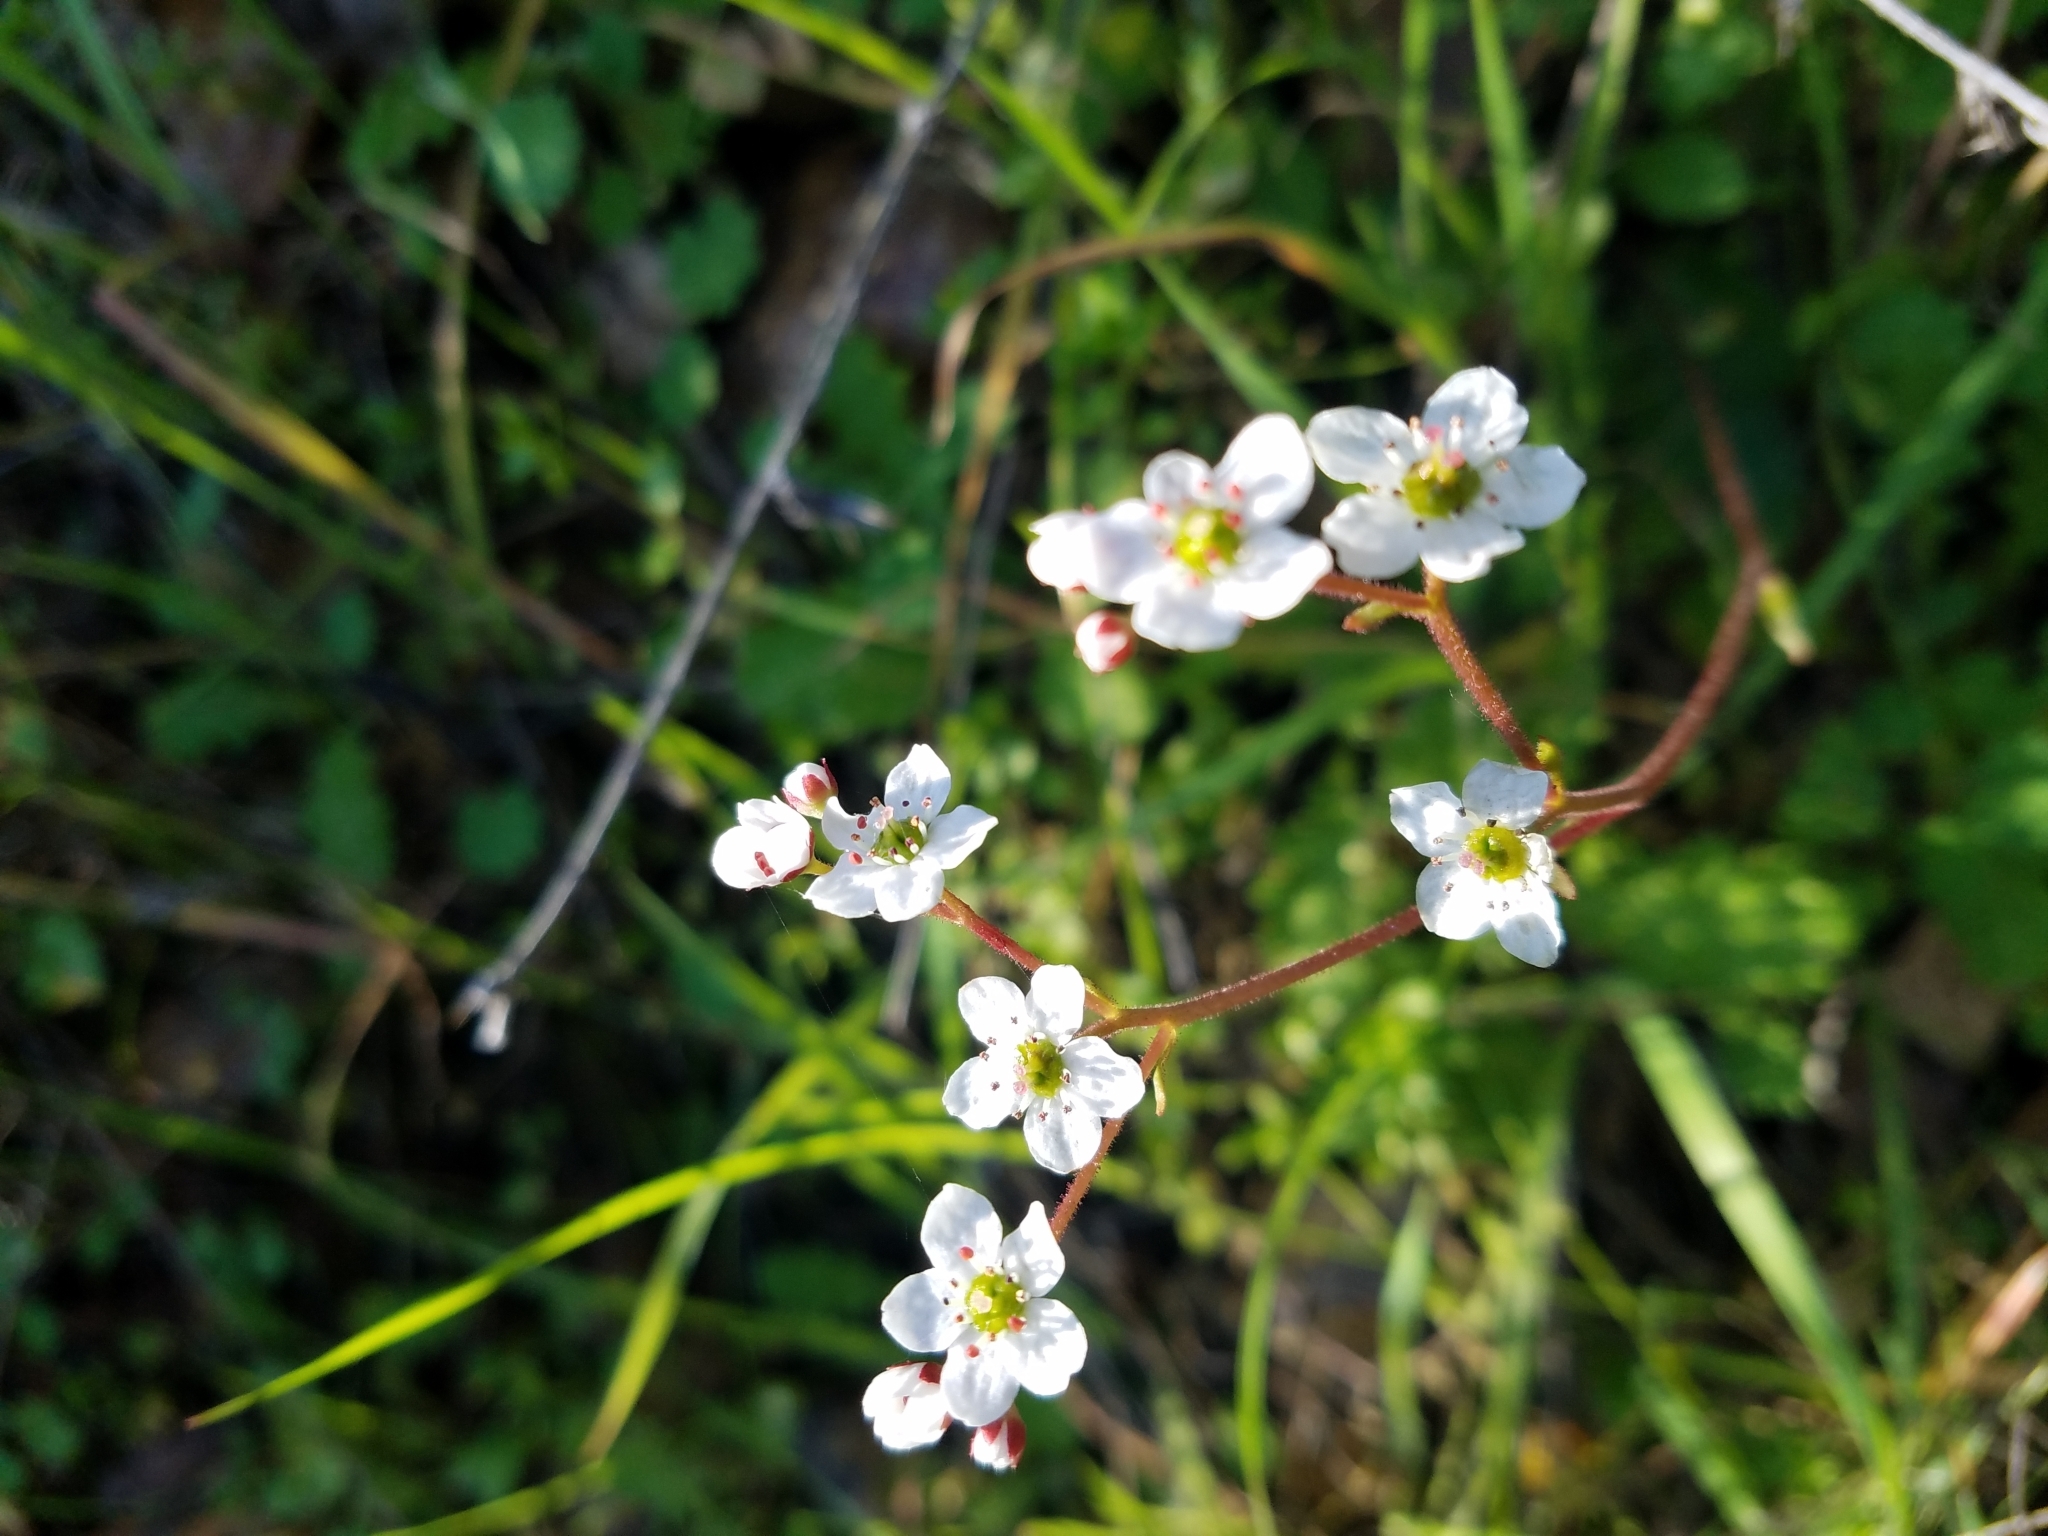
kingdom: Plantae
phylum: Tracheophyta
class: Magnoliopsida
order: Saxifragales
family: Saxifragaceae
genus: Micranthes
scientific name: Micranthes californica
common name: California saxifrage
